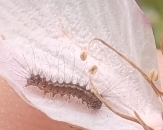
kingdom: Animalia
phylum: Arthropoda
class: Insecta
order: Lepidoptera
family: Erebidae
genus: Lymantria
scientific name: Lymantria dispar
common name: Gypsy moth
